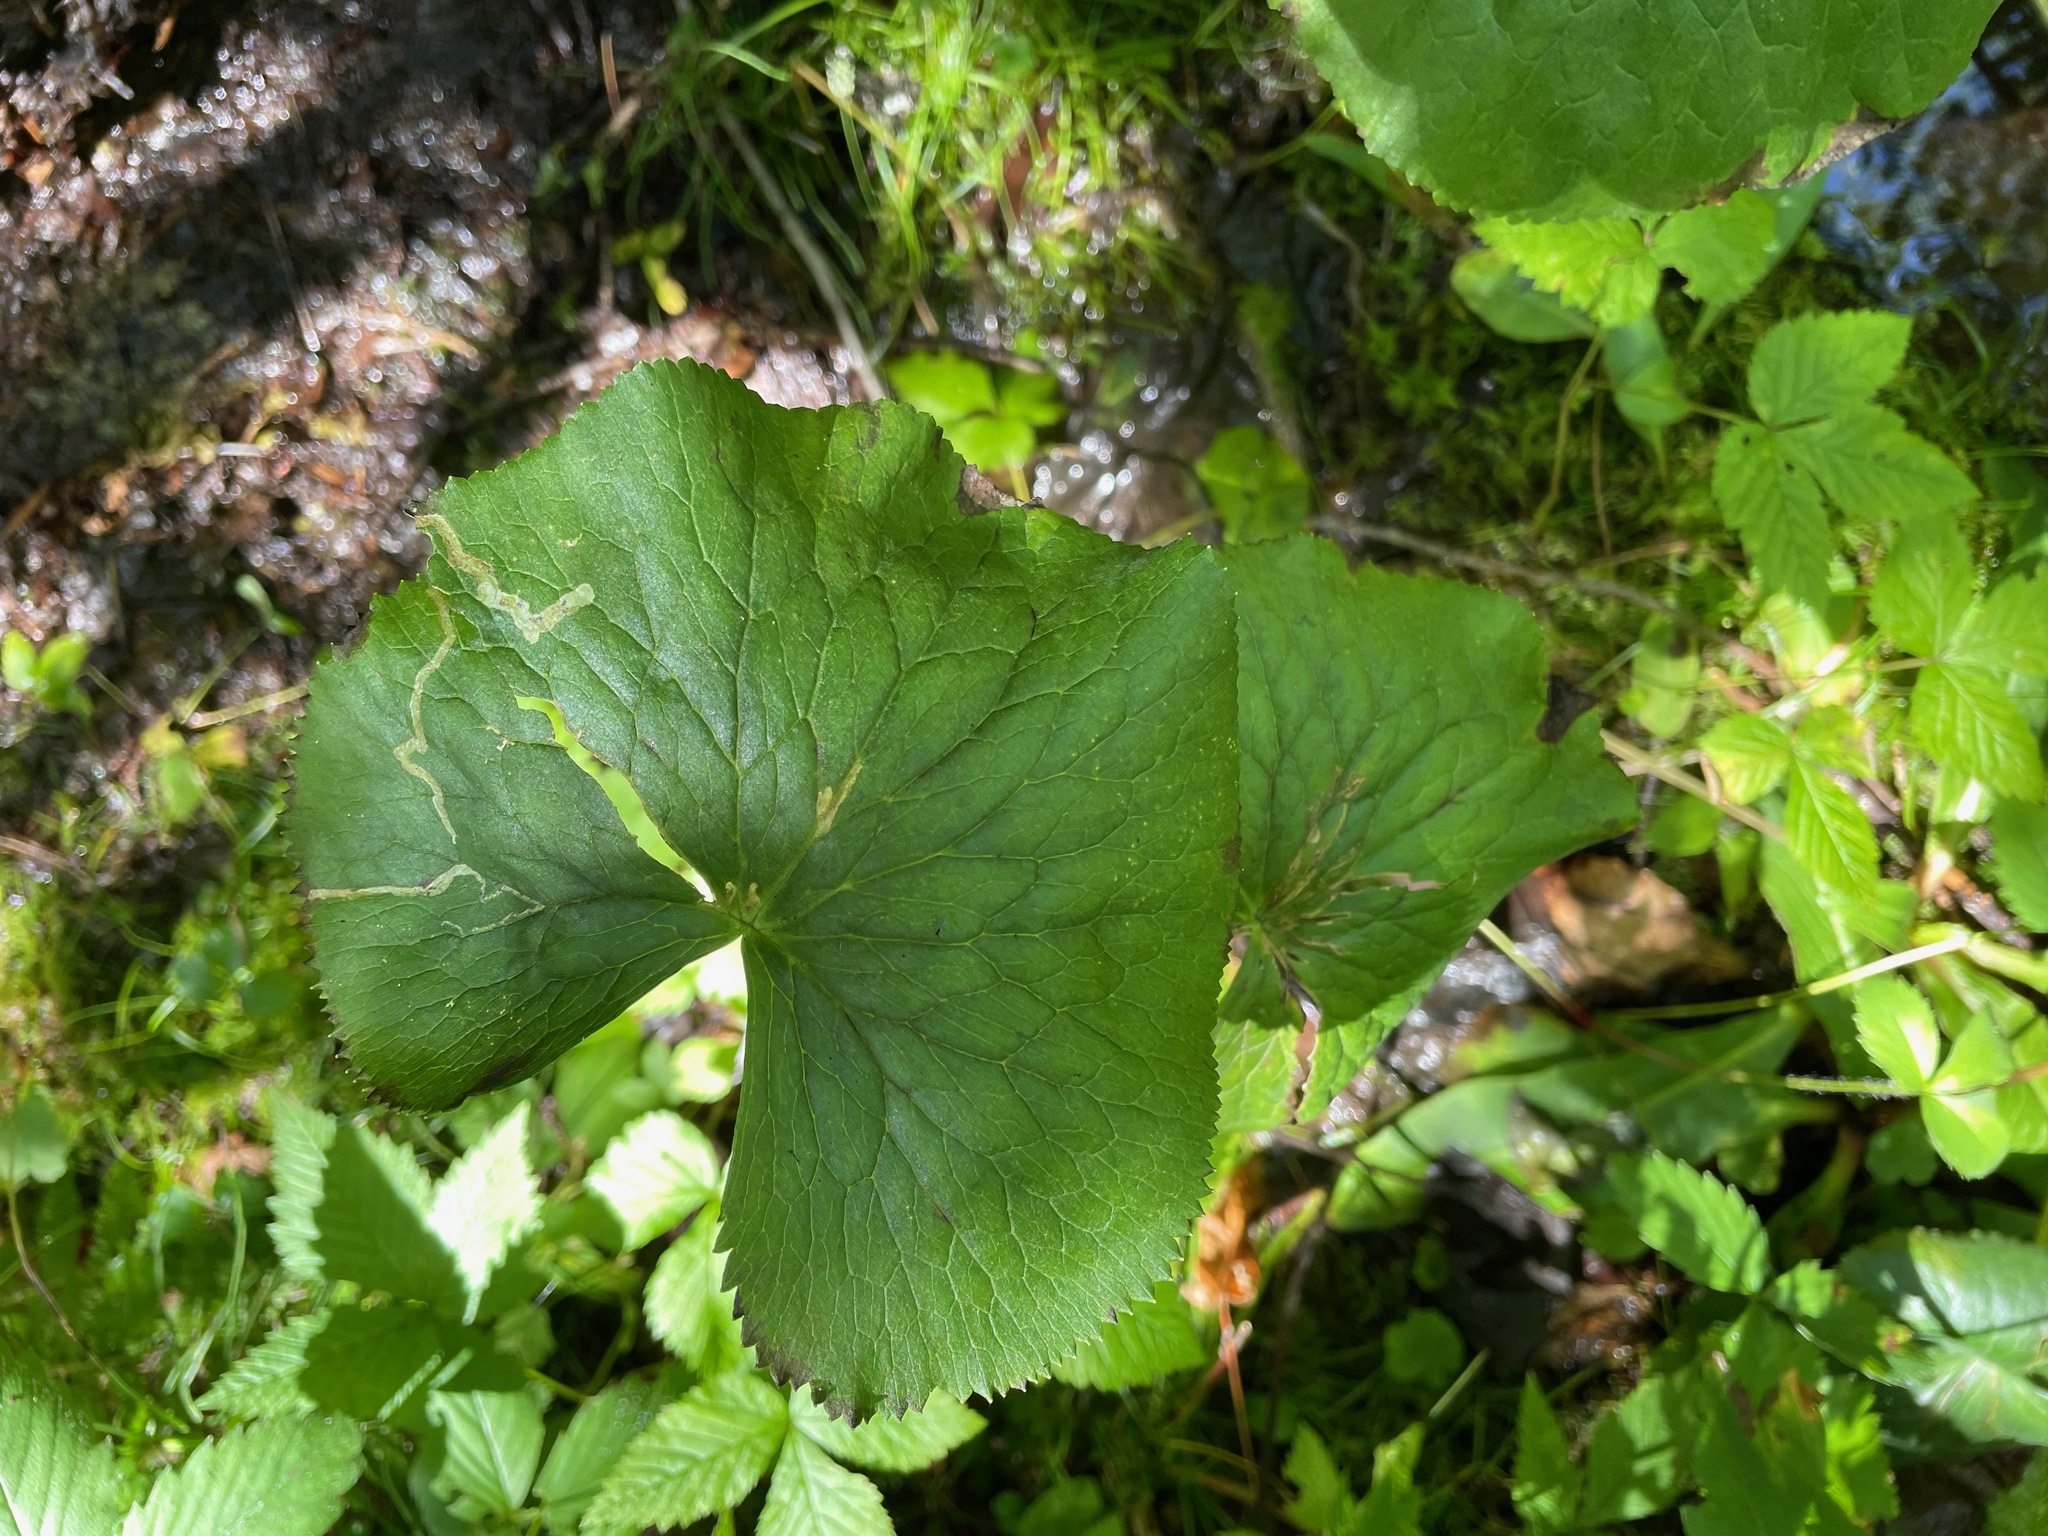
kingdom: Plantae
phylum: Tracheophyta
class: Magnoliopsida
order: Ranunculales
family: Ranunculaceae
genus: Caltha
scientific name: Caltha palustris
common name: Marsh marigold
